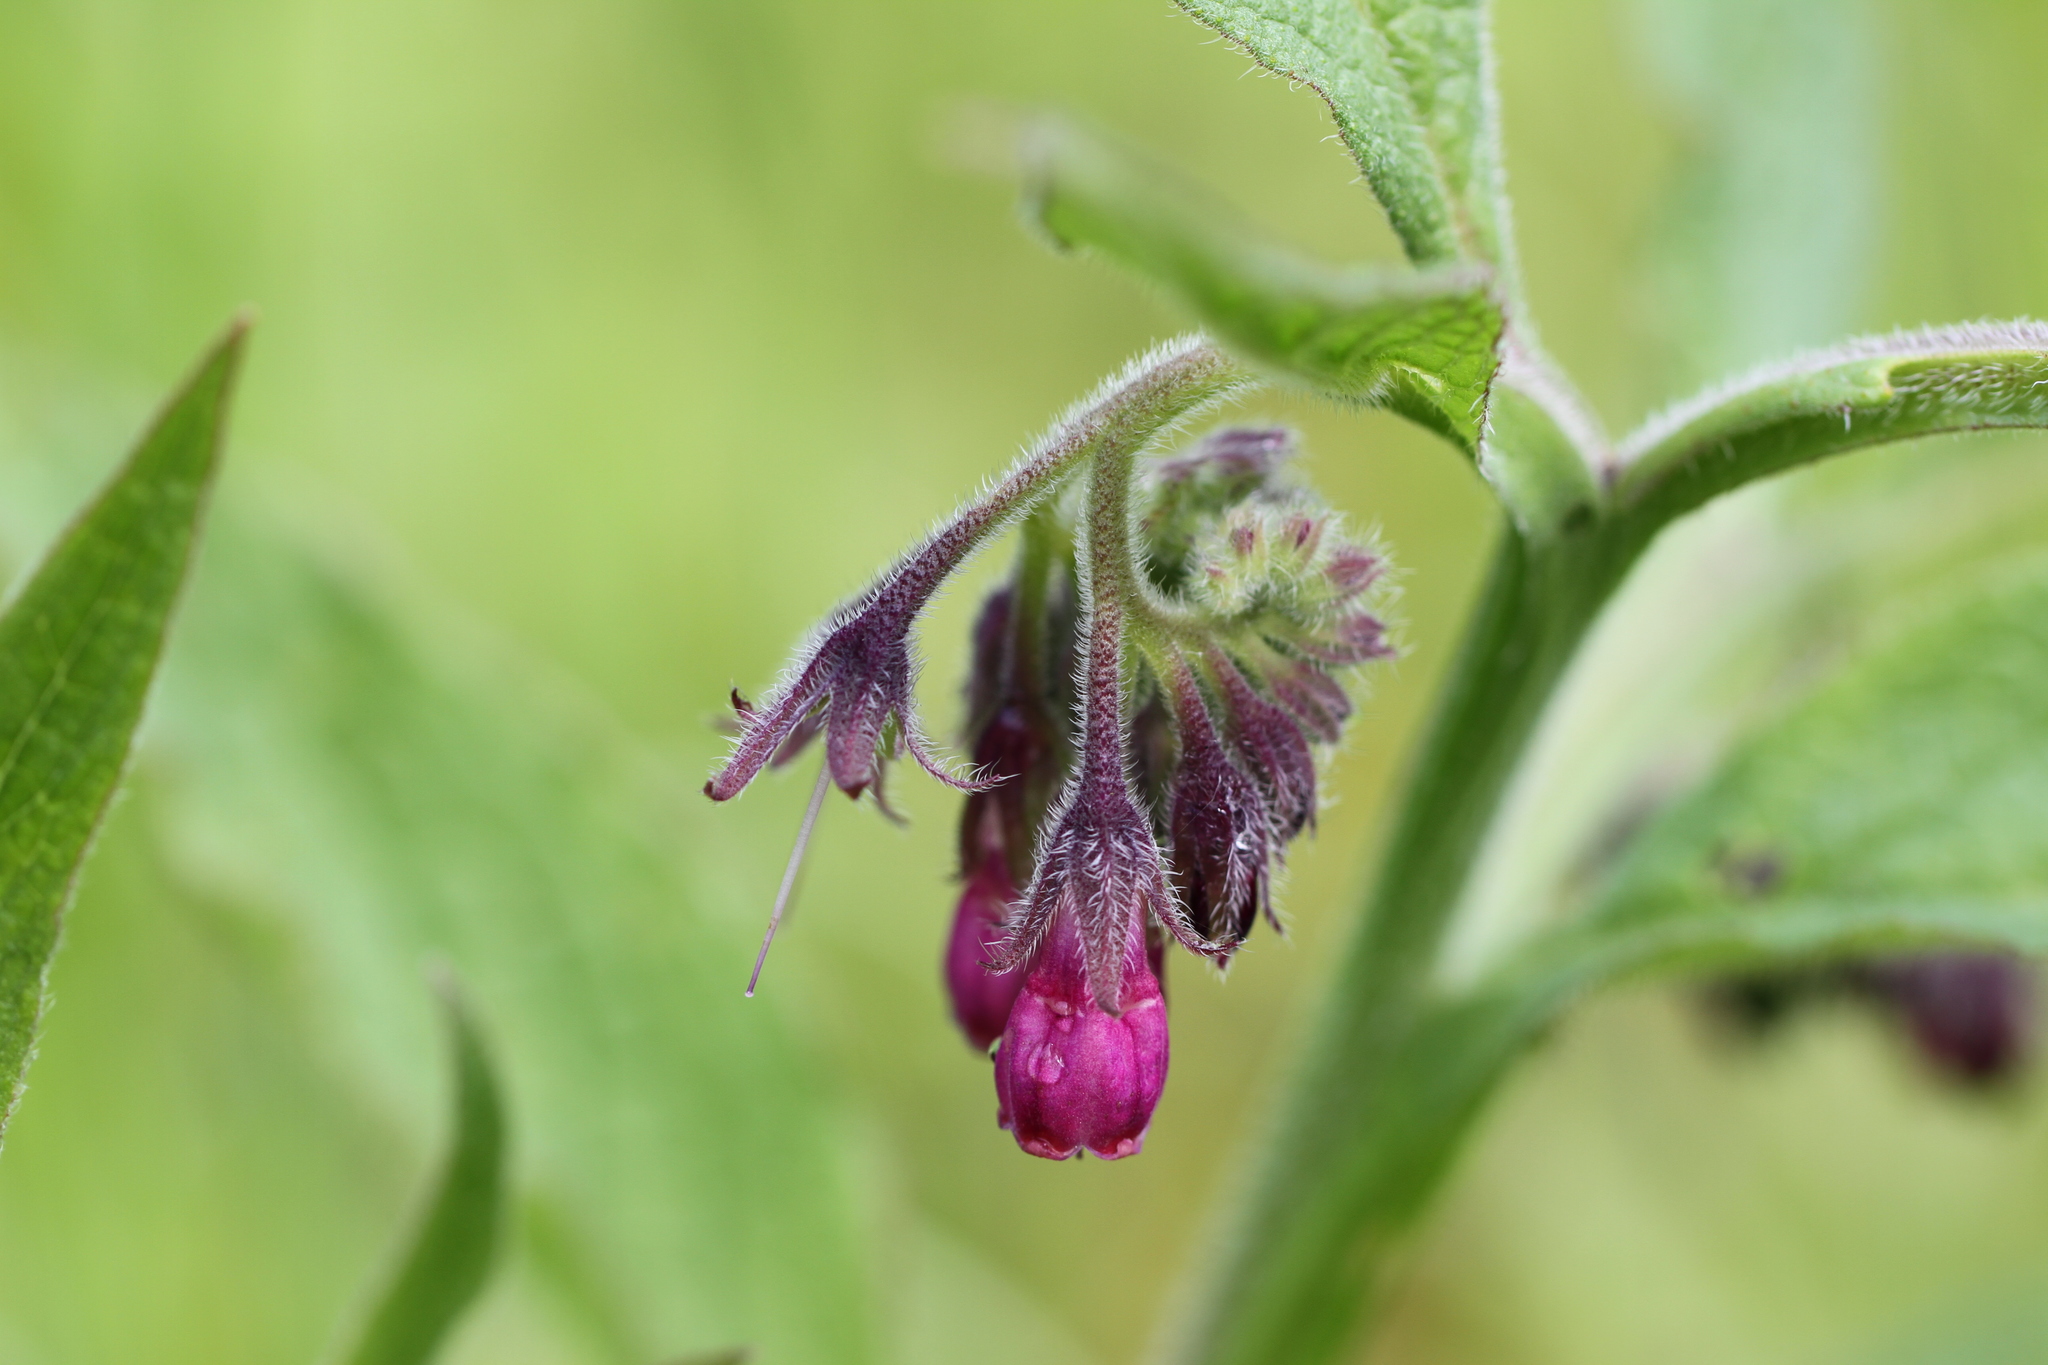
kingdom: Plantae
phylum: Tracheophyta
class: Magnoliopsida
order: Boraginales
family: Boraginaceae
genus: Symphytum
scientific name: Symphytum officinale
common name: Common comfrey
